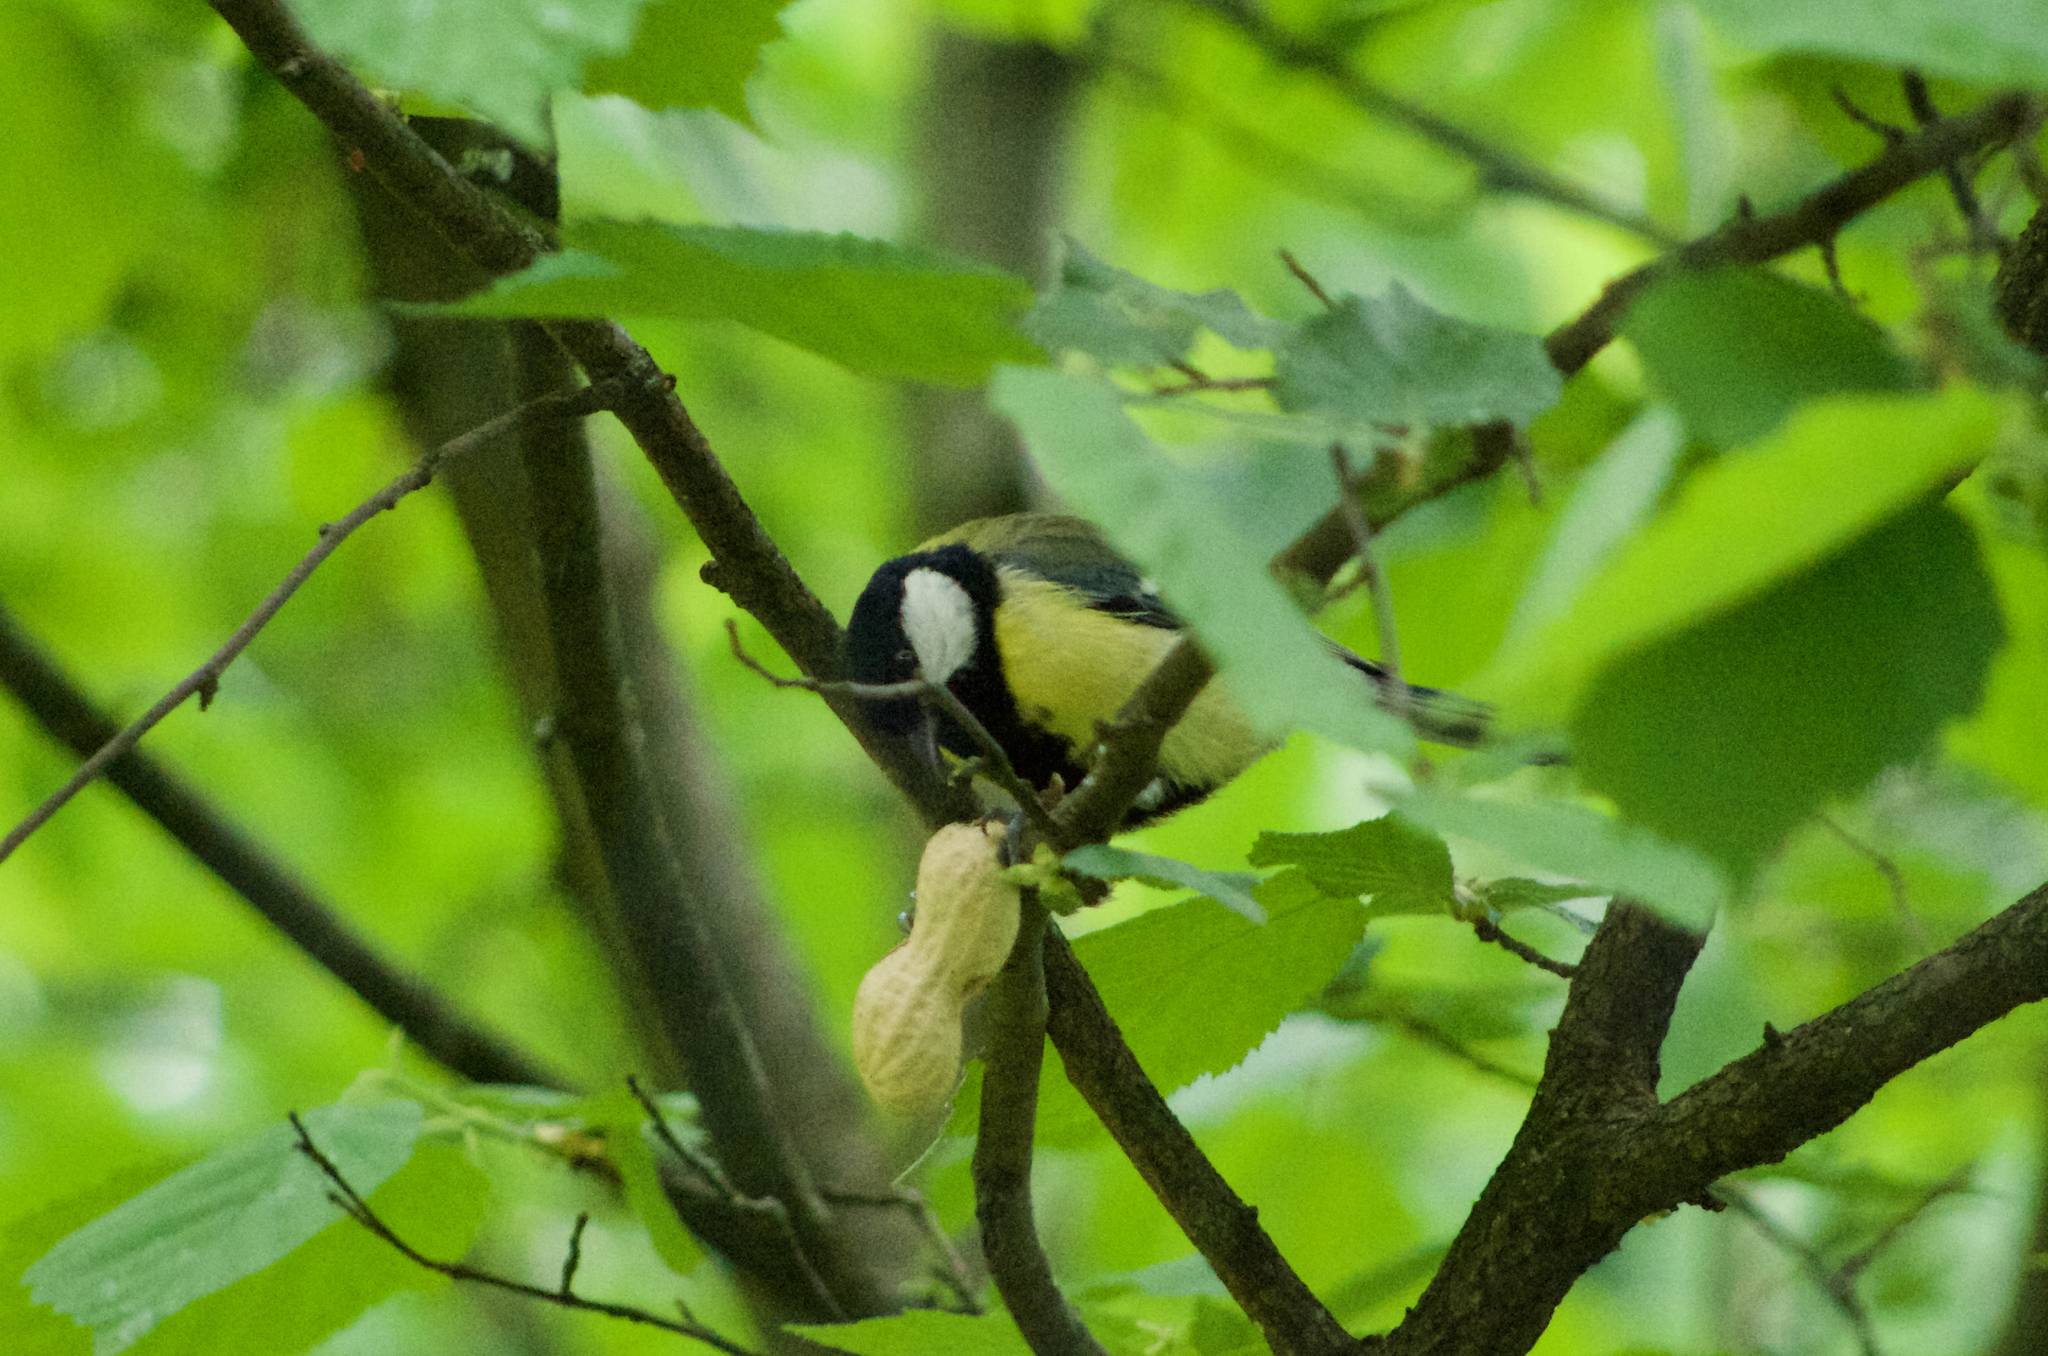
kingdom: Animalia
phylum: Chordata
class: Aves
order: Passeriformes
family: Paridae
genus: Parus
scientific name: Parus major
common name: Great tit
